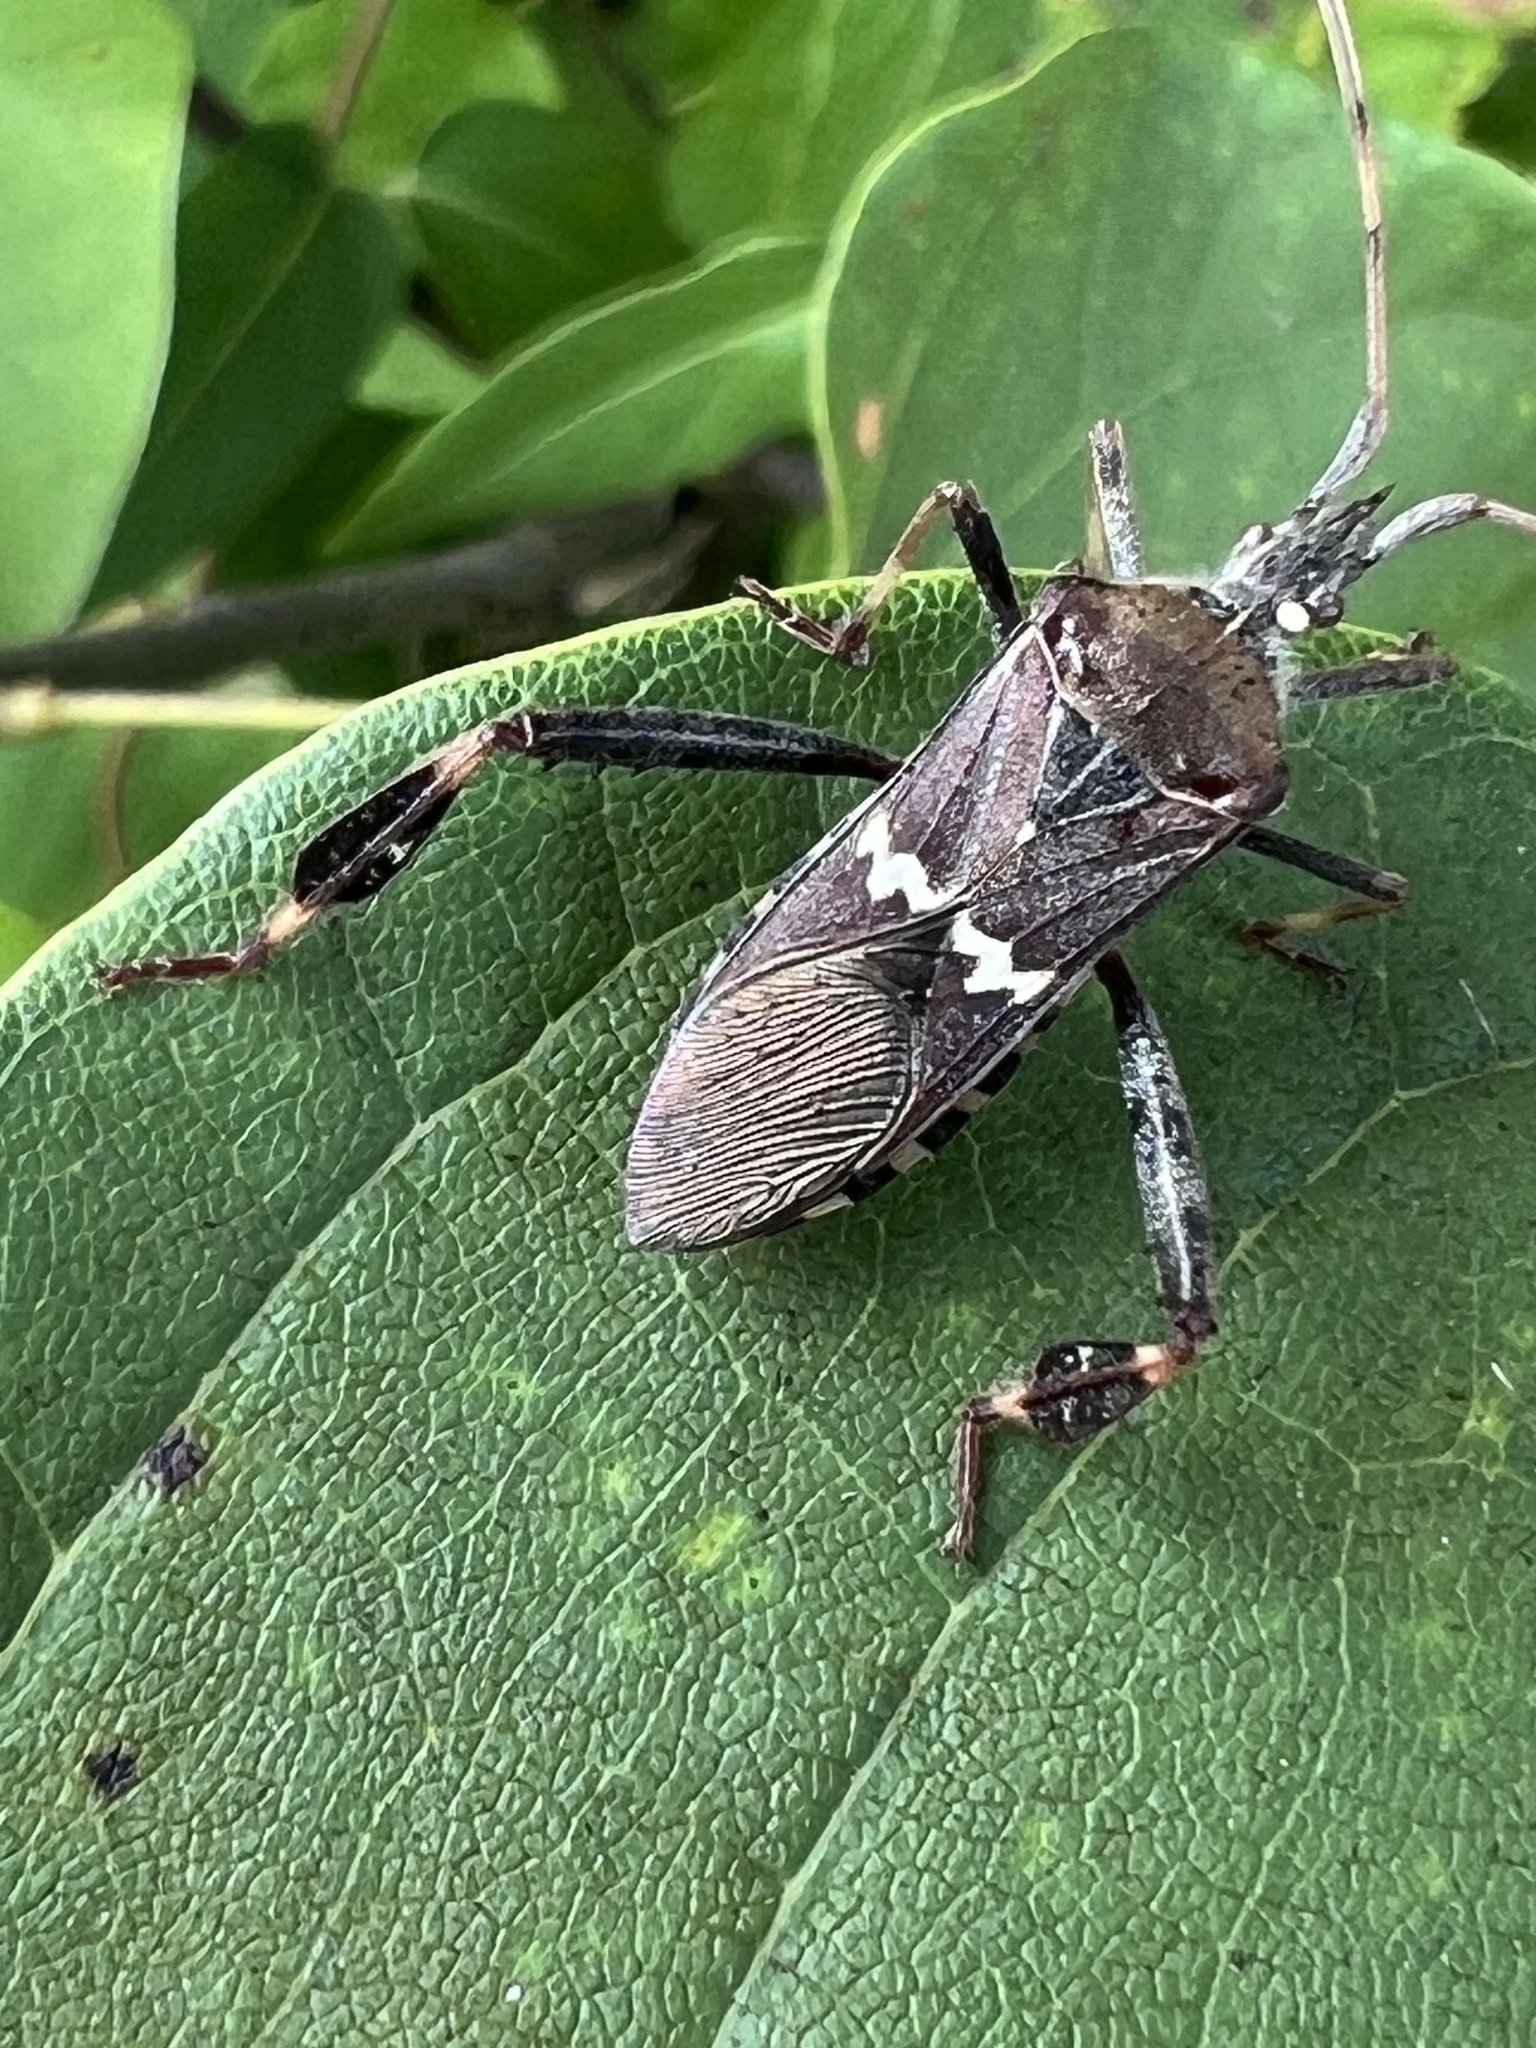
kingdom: Animalia
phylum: Arthropoda
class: Insecta
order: Hemiptera
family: Coreidae
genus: Leptoglossus
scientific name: Leptoglossus clypealis
